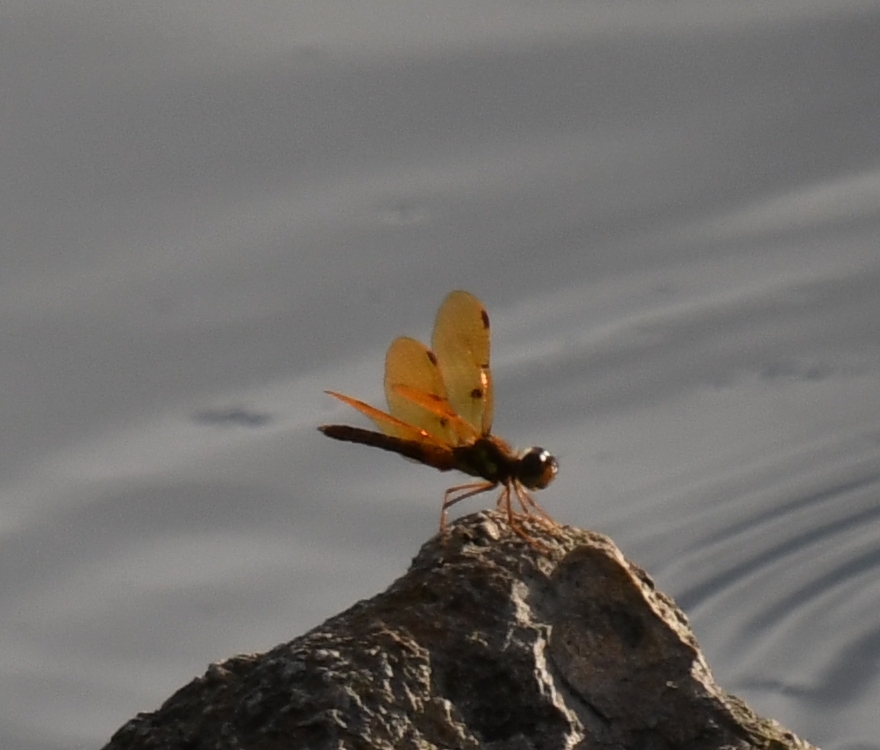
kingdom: Animalia
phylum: Arthropoda
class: Insecta
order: Odonata
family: Libellulidae
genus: Perithemis
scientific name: Perithemis tenera
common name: Eastern amberwing
